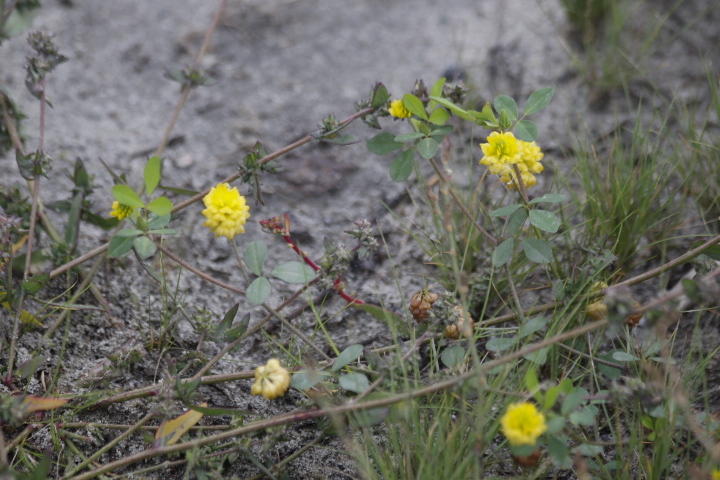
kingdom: Plantae
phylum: Tracheophyta
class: Magnoliopsida
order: Fabales
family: Fabaceae
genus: Trifolium
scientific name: Trifolium campestre
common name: Field clover
